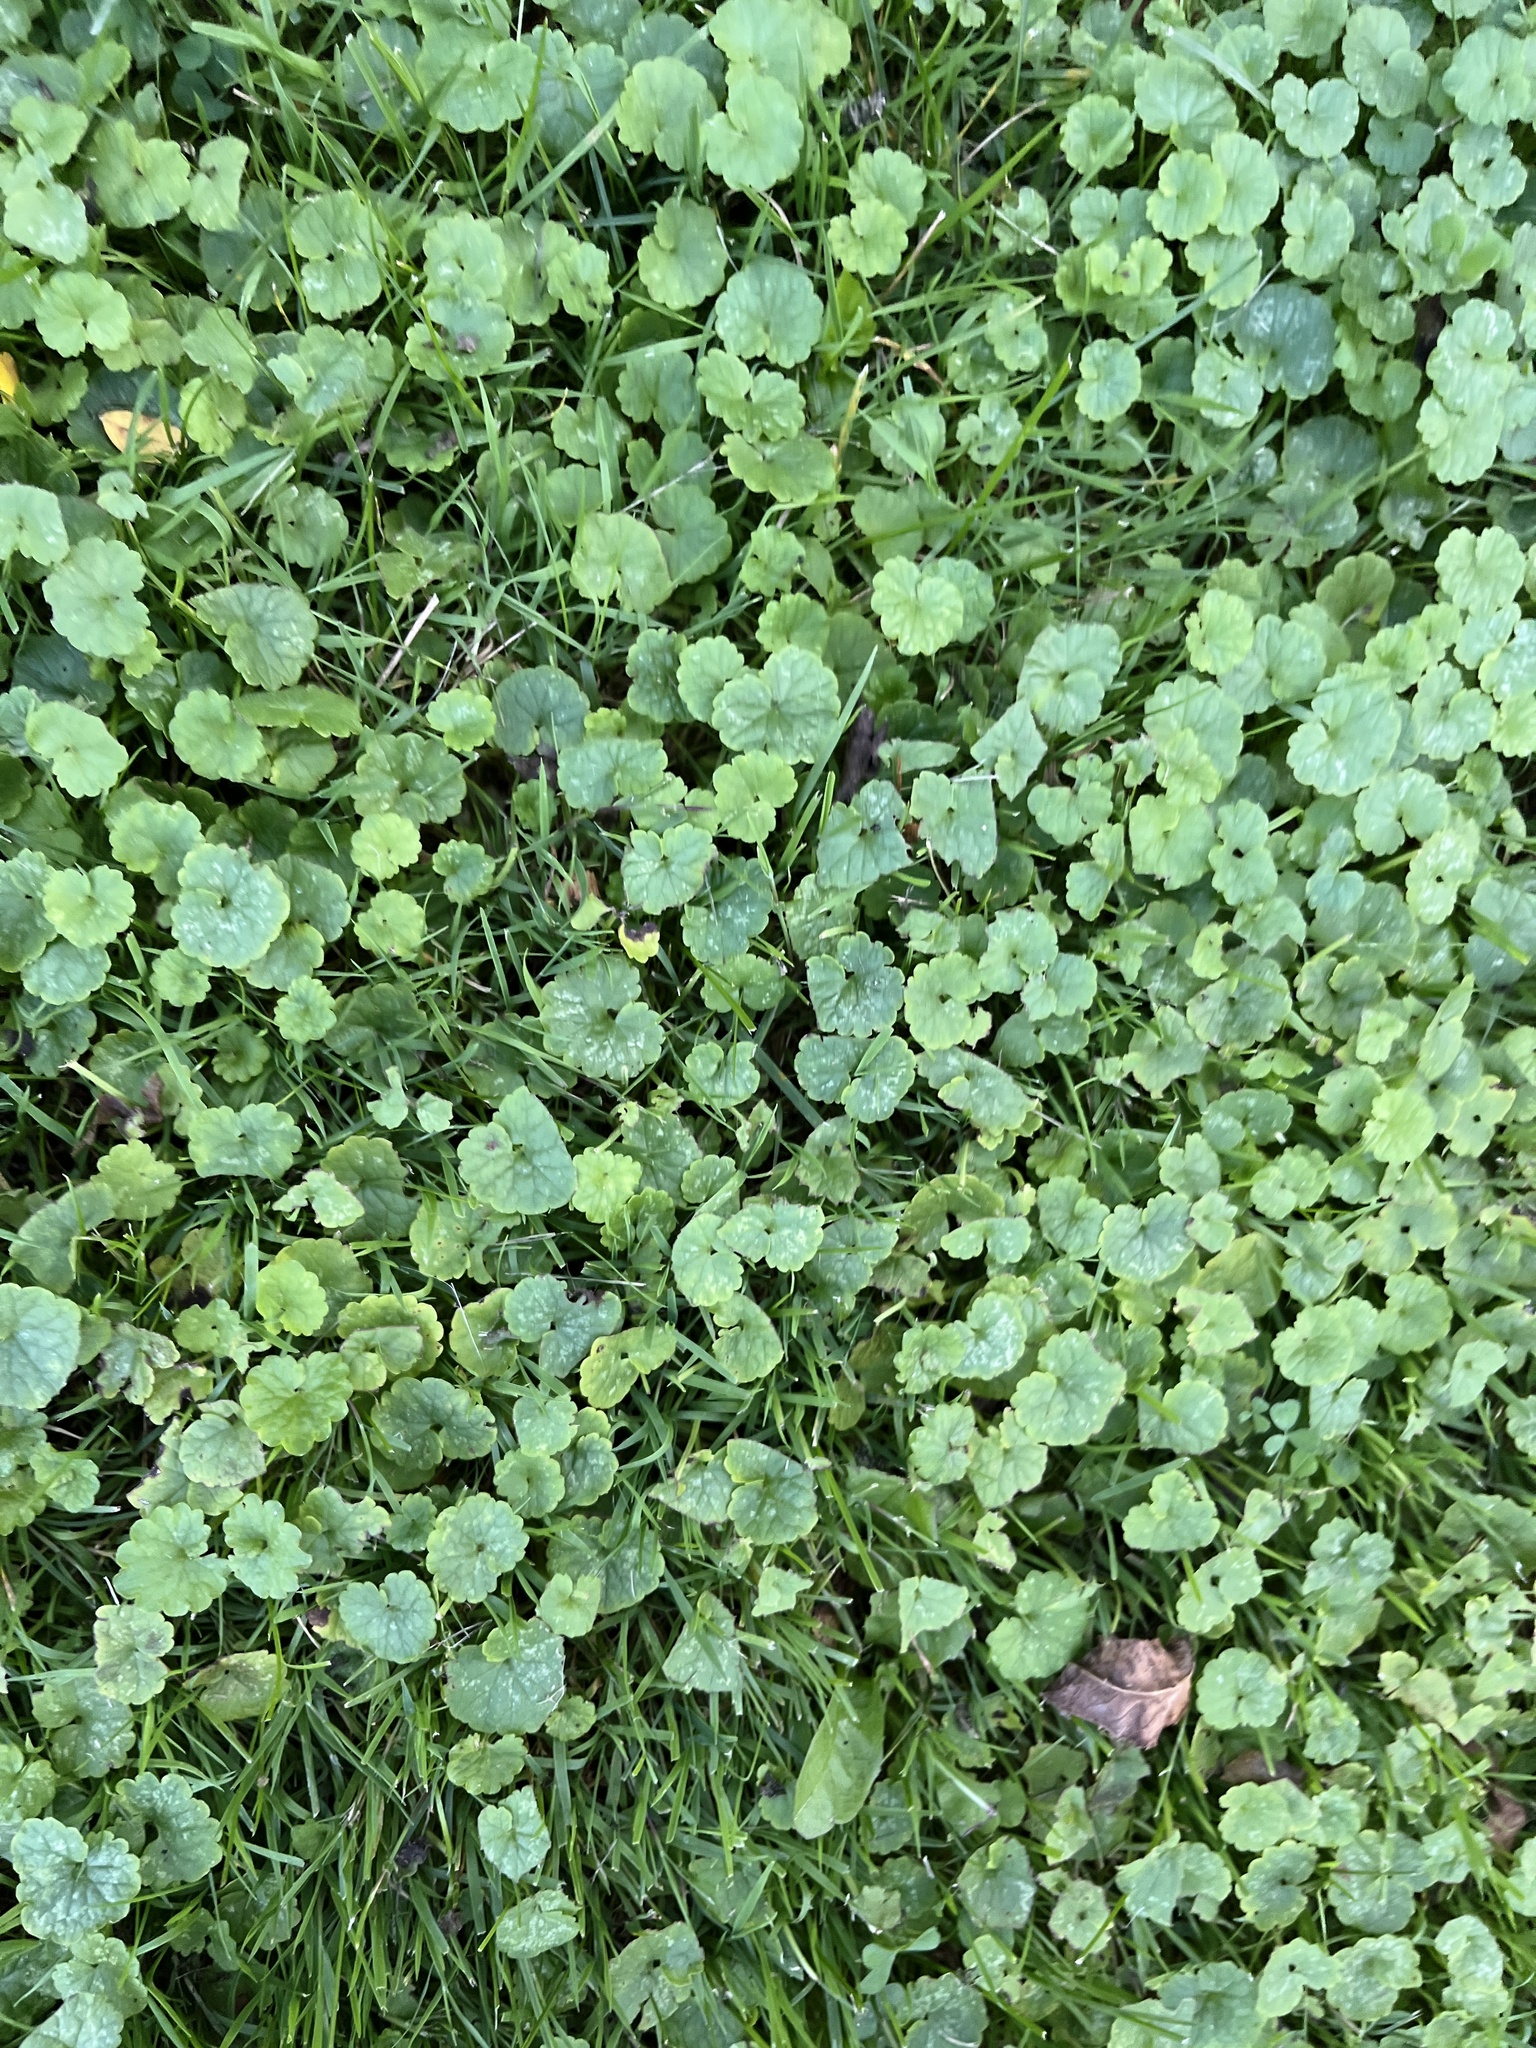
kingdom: Plantae
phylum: Tracheophyta
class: Magnoliopsida
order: Lamiales
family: Lamiaceae
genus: Glechoma
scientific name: Glechoma hederacea
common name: Ground ivy
